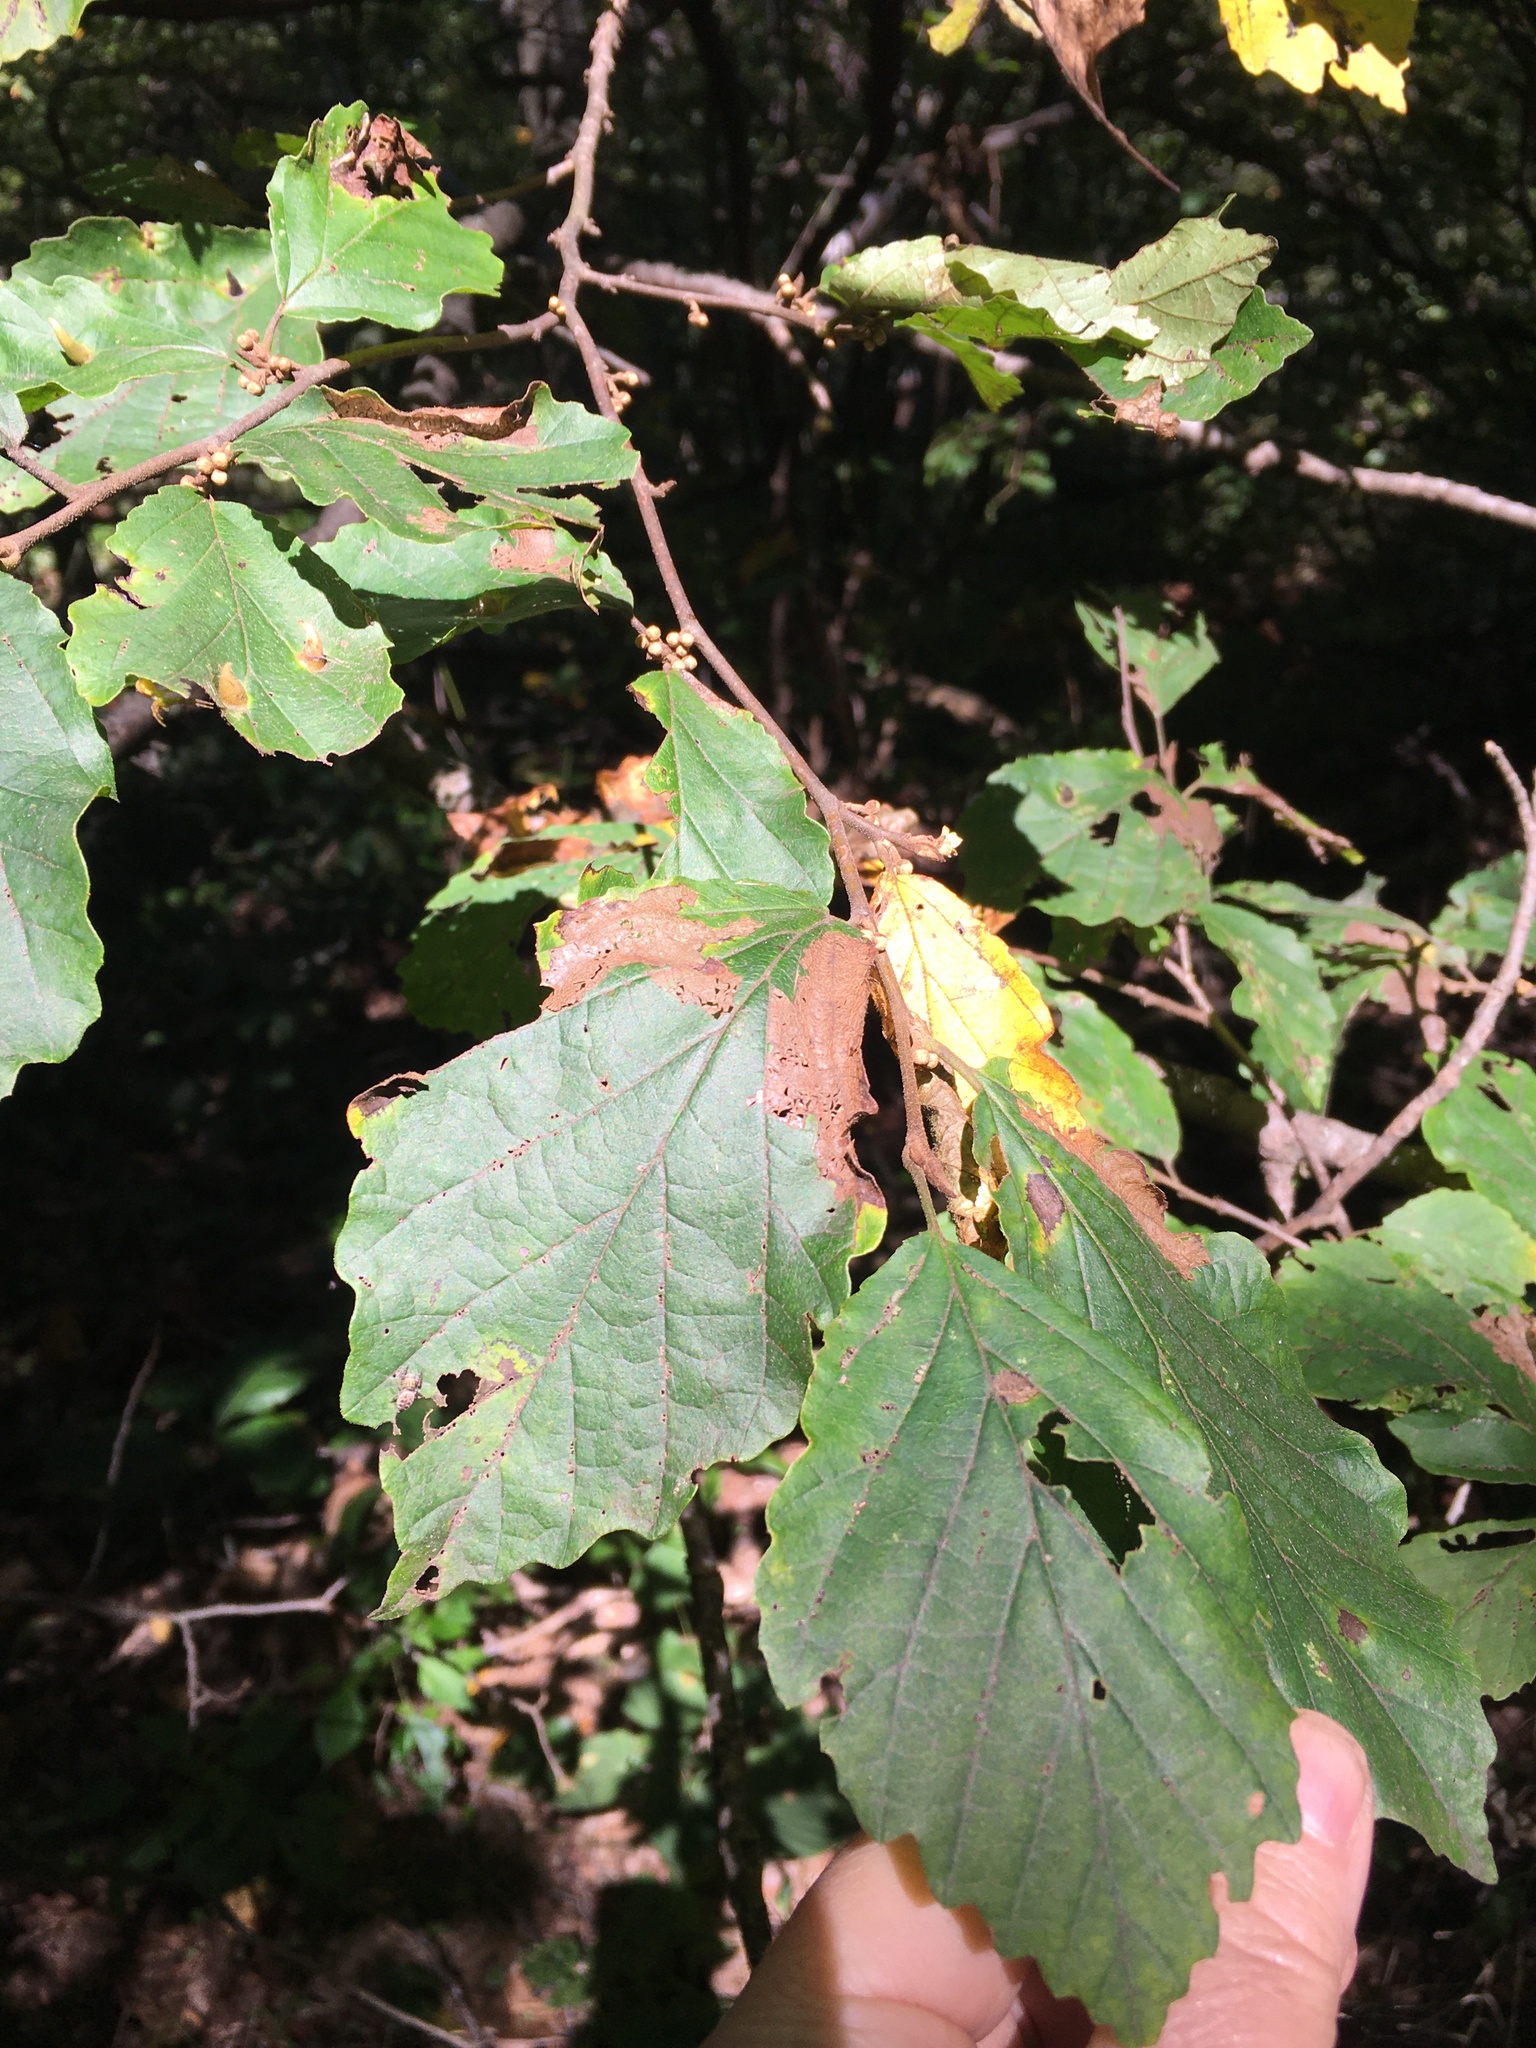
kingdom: Plantae
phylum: Tracheophyta
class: Magnoliopsida
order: Saxifragales
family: Hamamelidaceae
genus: Hamamelis
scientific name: Hamamelis virginiana
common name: Witch-hazel
